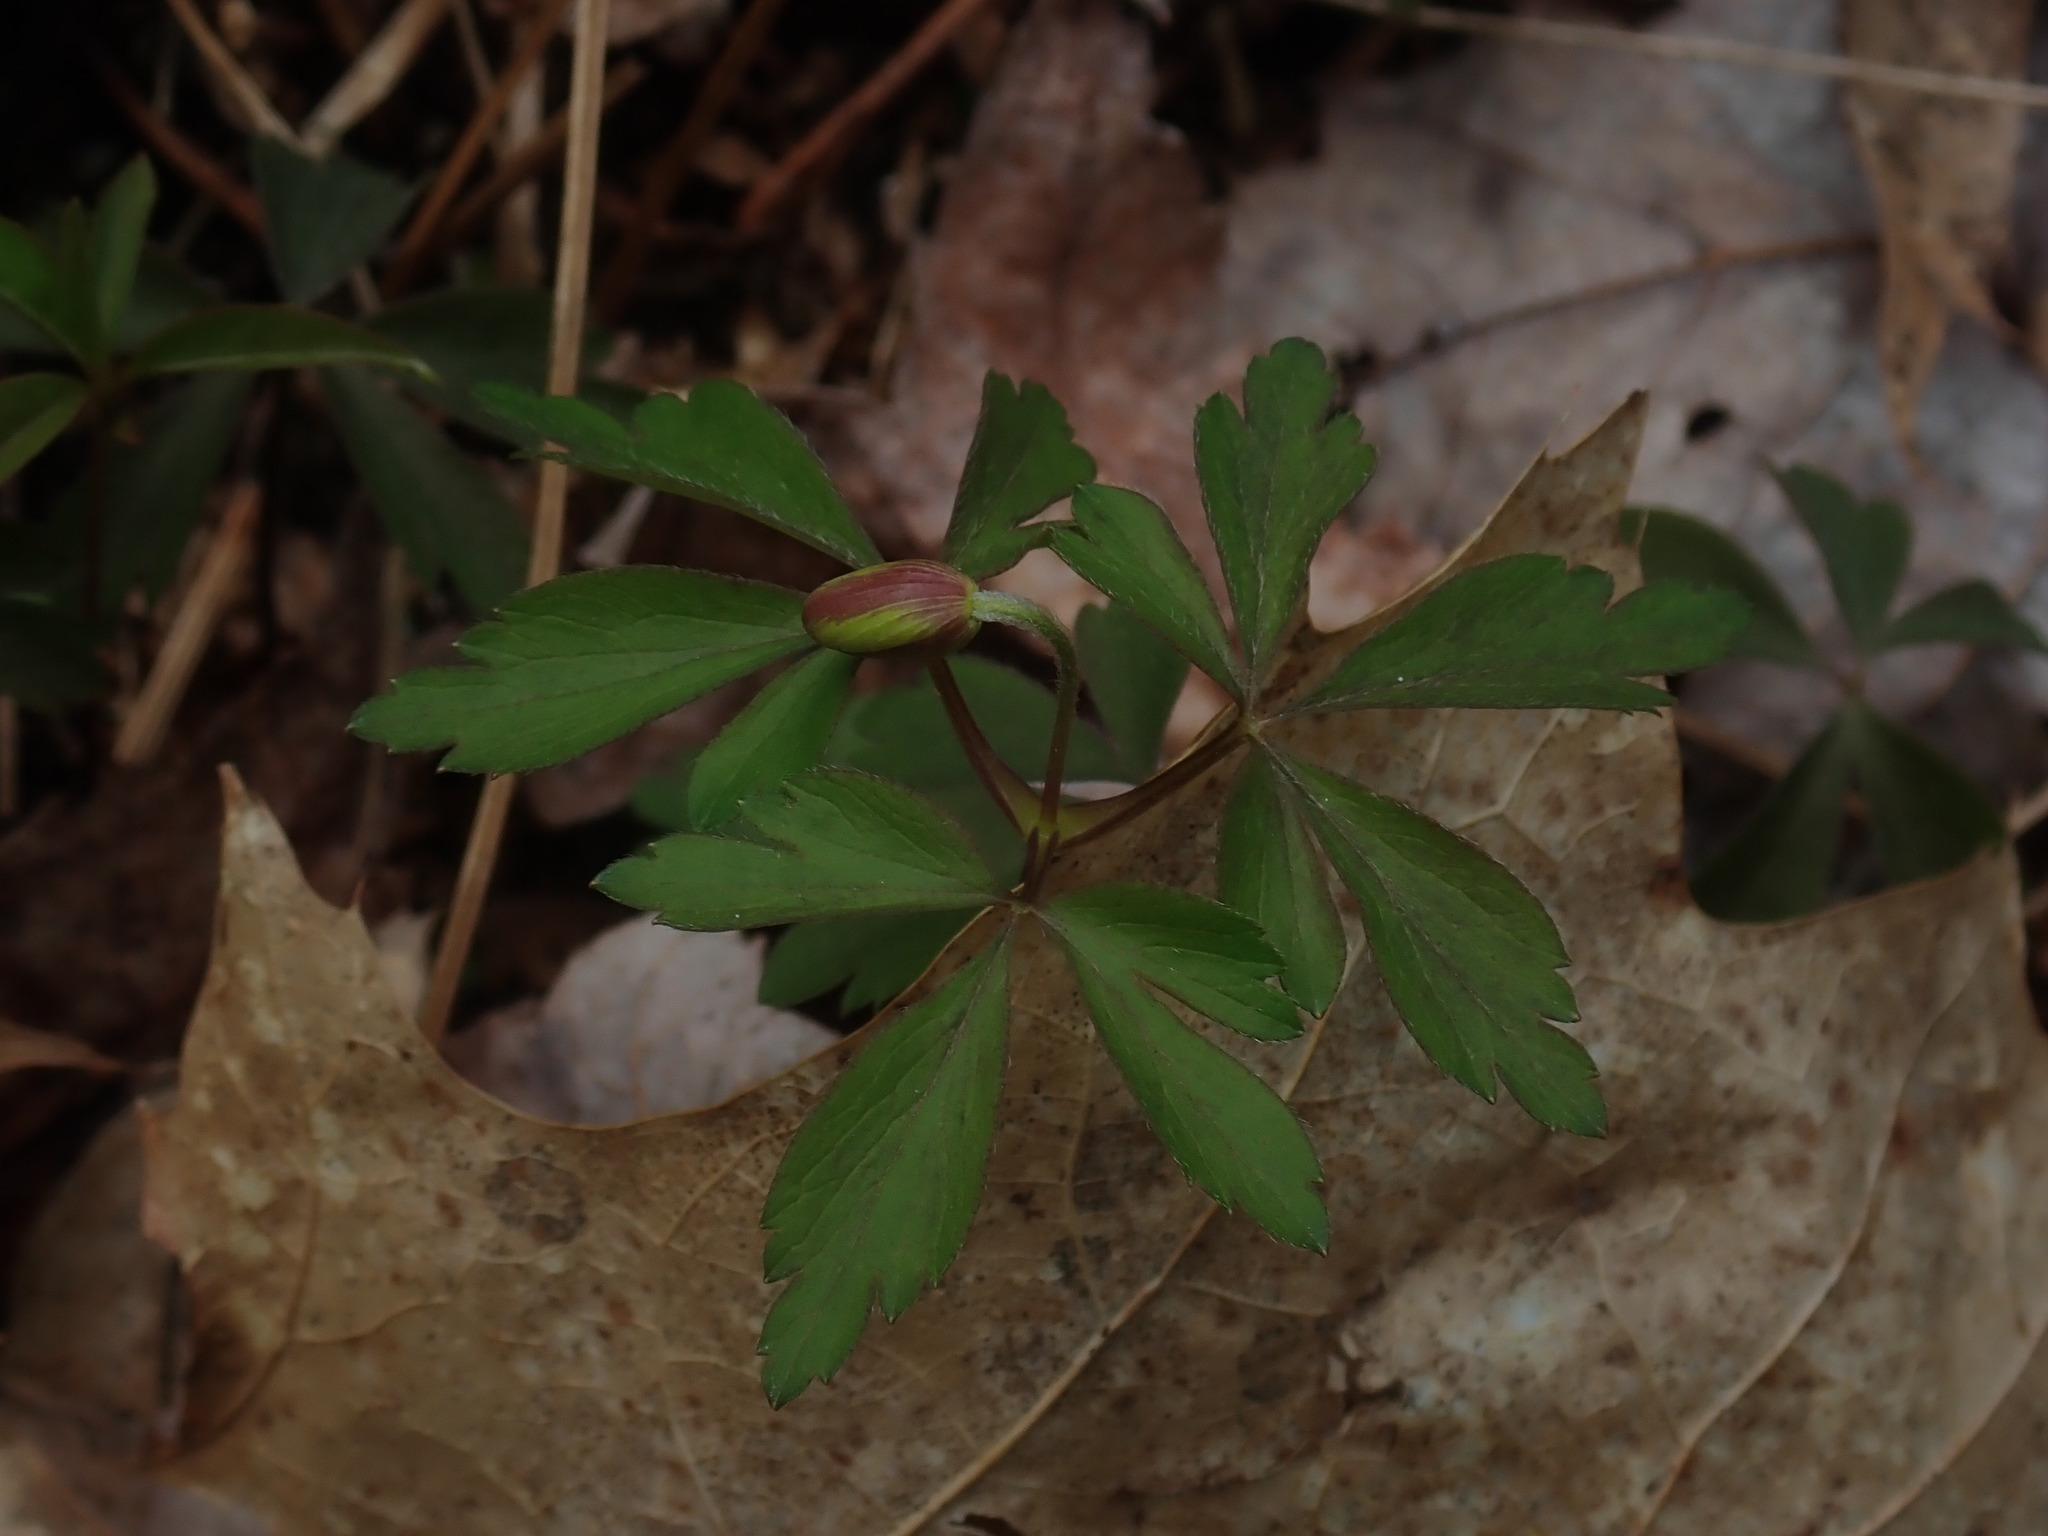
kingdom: Plantae
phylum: Tracheophyta
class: Magnoliopsida
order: Ranunculales
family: Ranunculaceae
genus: Anemone
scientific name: Anemone quinquefolia
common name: Wood anemone
